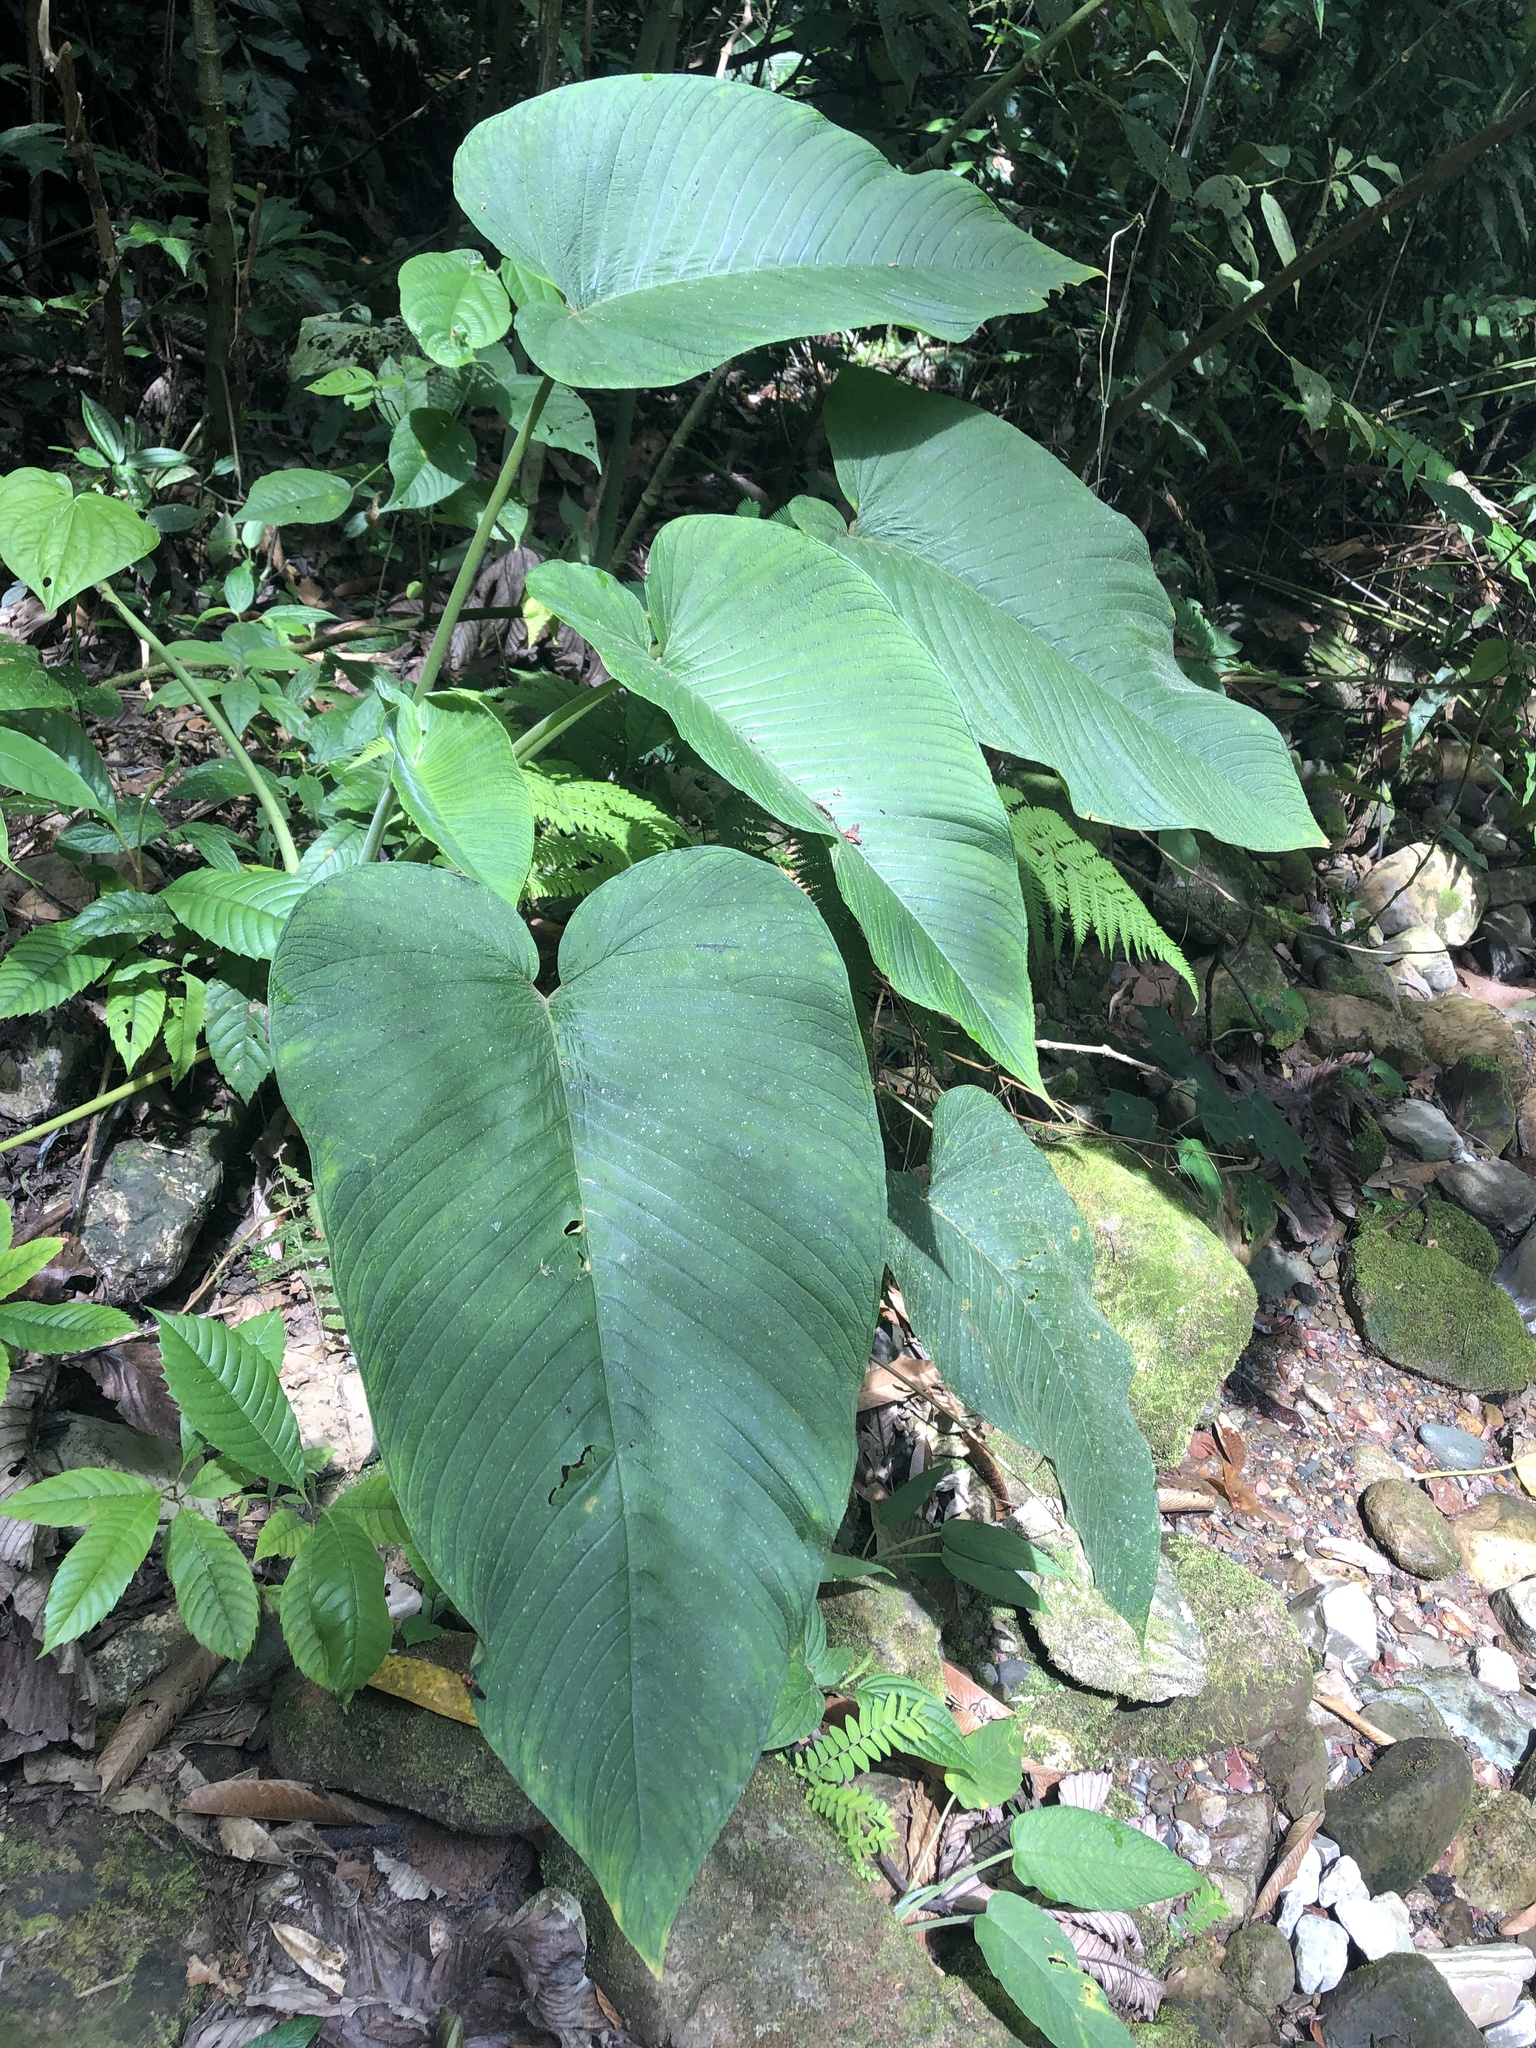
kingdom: Plantae
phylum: Tracheophyta
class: Liliopsida
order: Alismatales
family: Araceae
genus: Xanthosoma
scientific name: Xanthosoma pubescens
